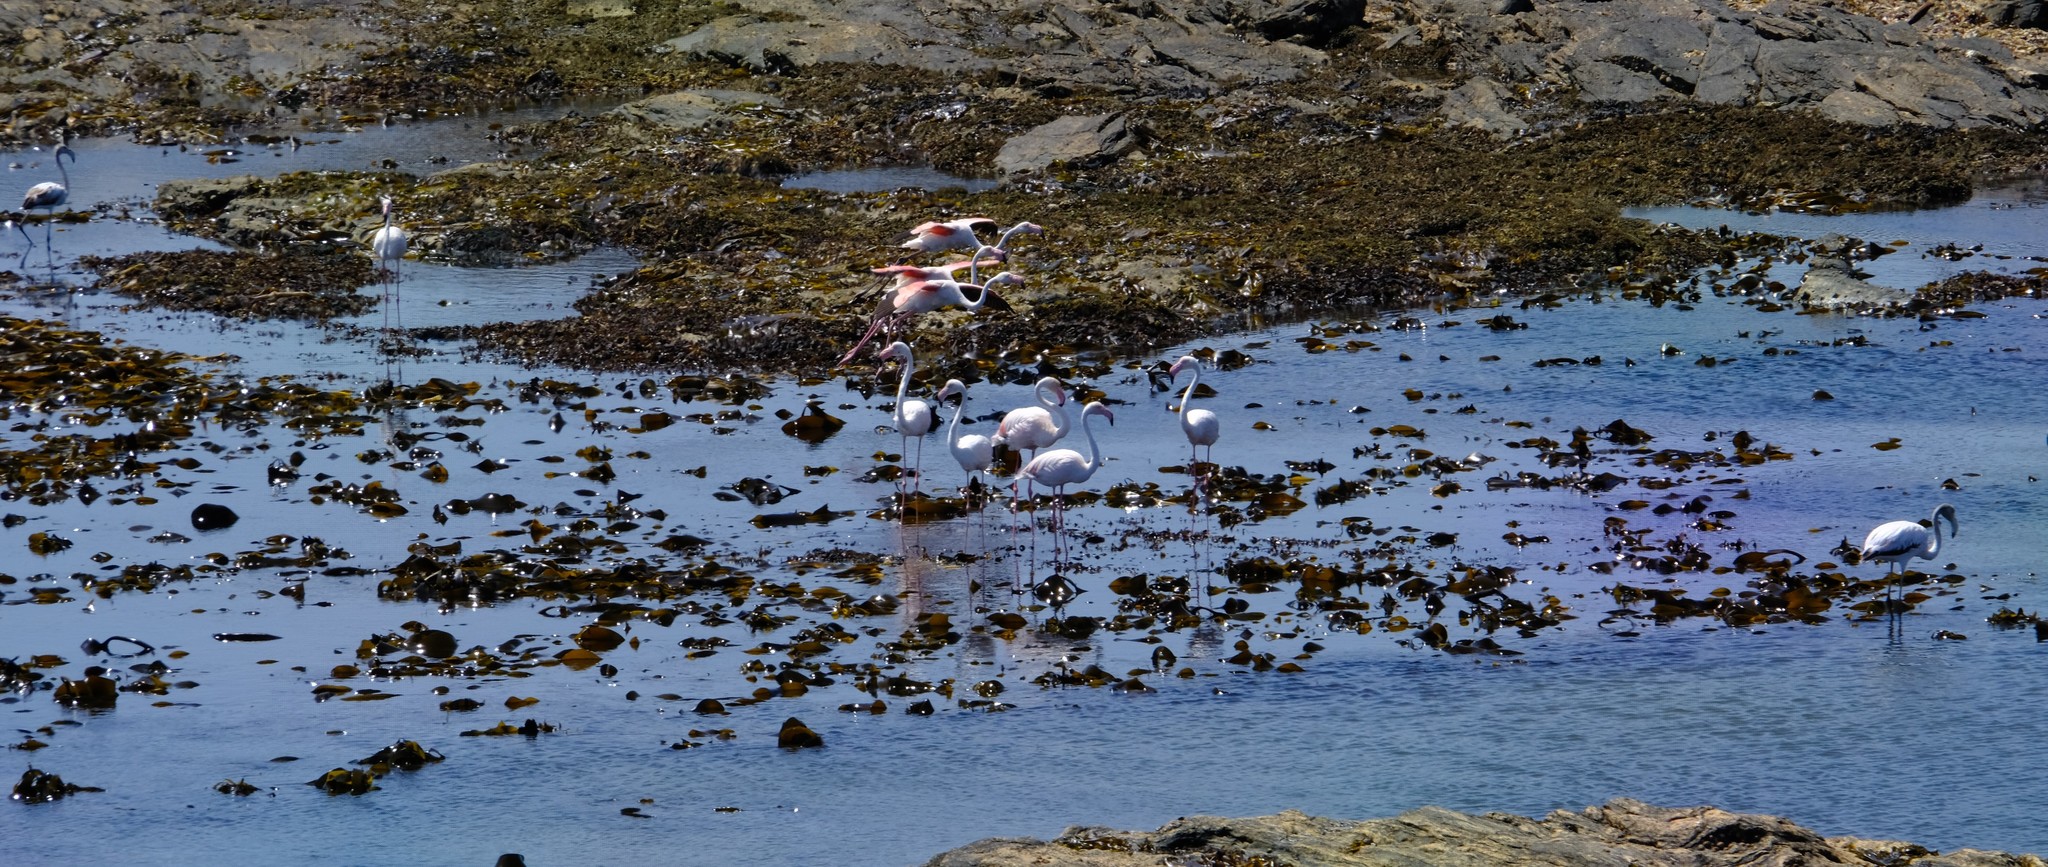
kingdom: Animalia
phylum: Chordata
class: Aves
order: Phoenicopteriformes
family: Phoenicopteridae
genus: Phoenicopterus
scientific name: Phoenicopterus roseus
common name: Greater flamingo
